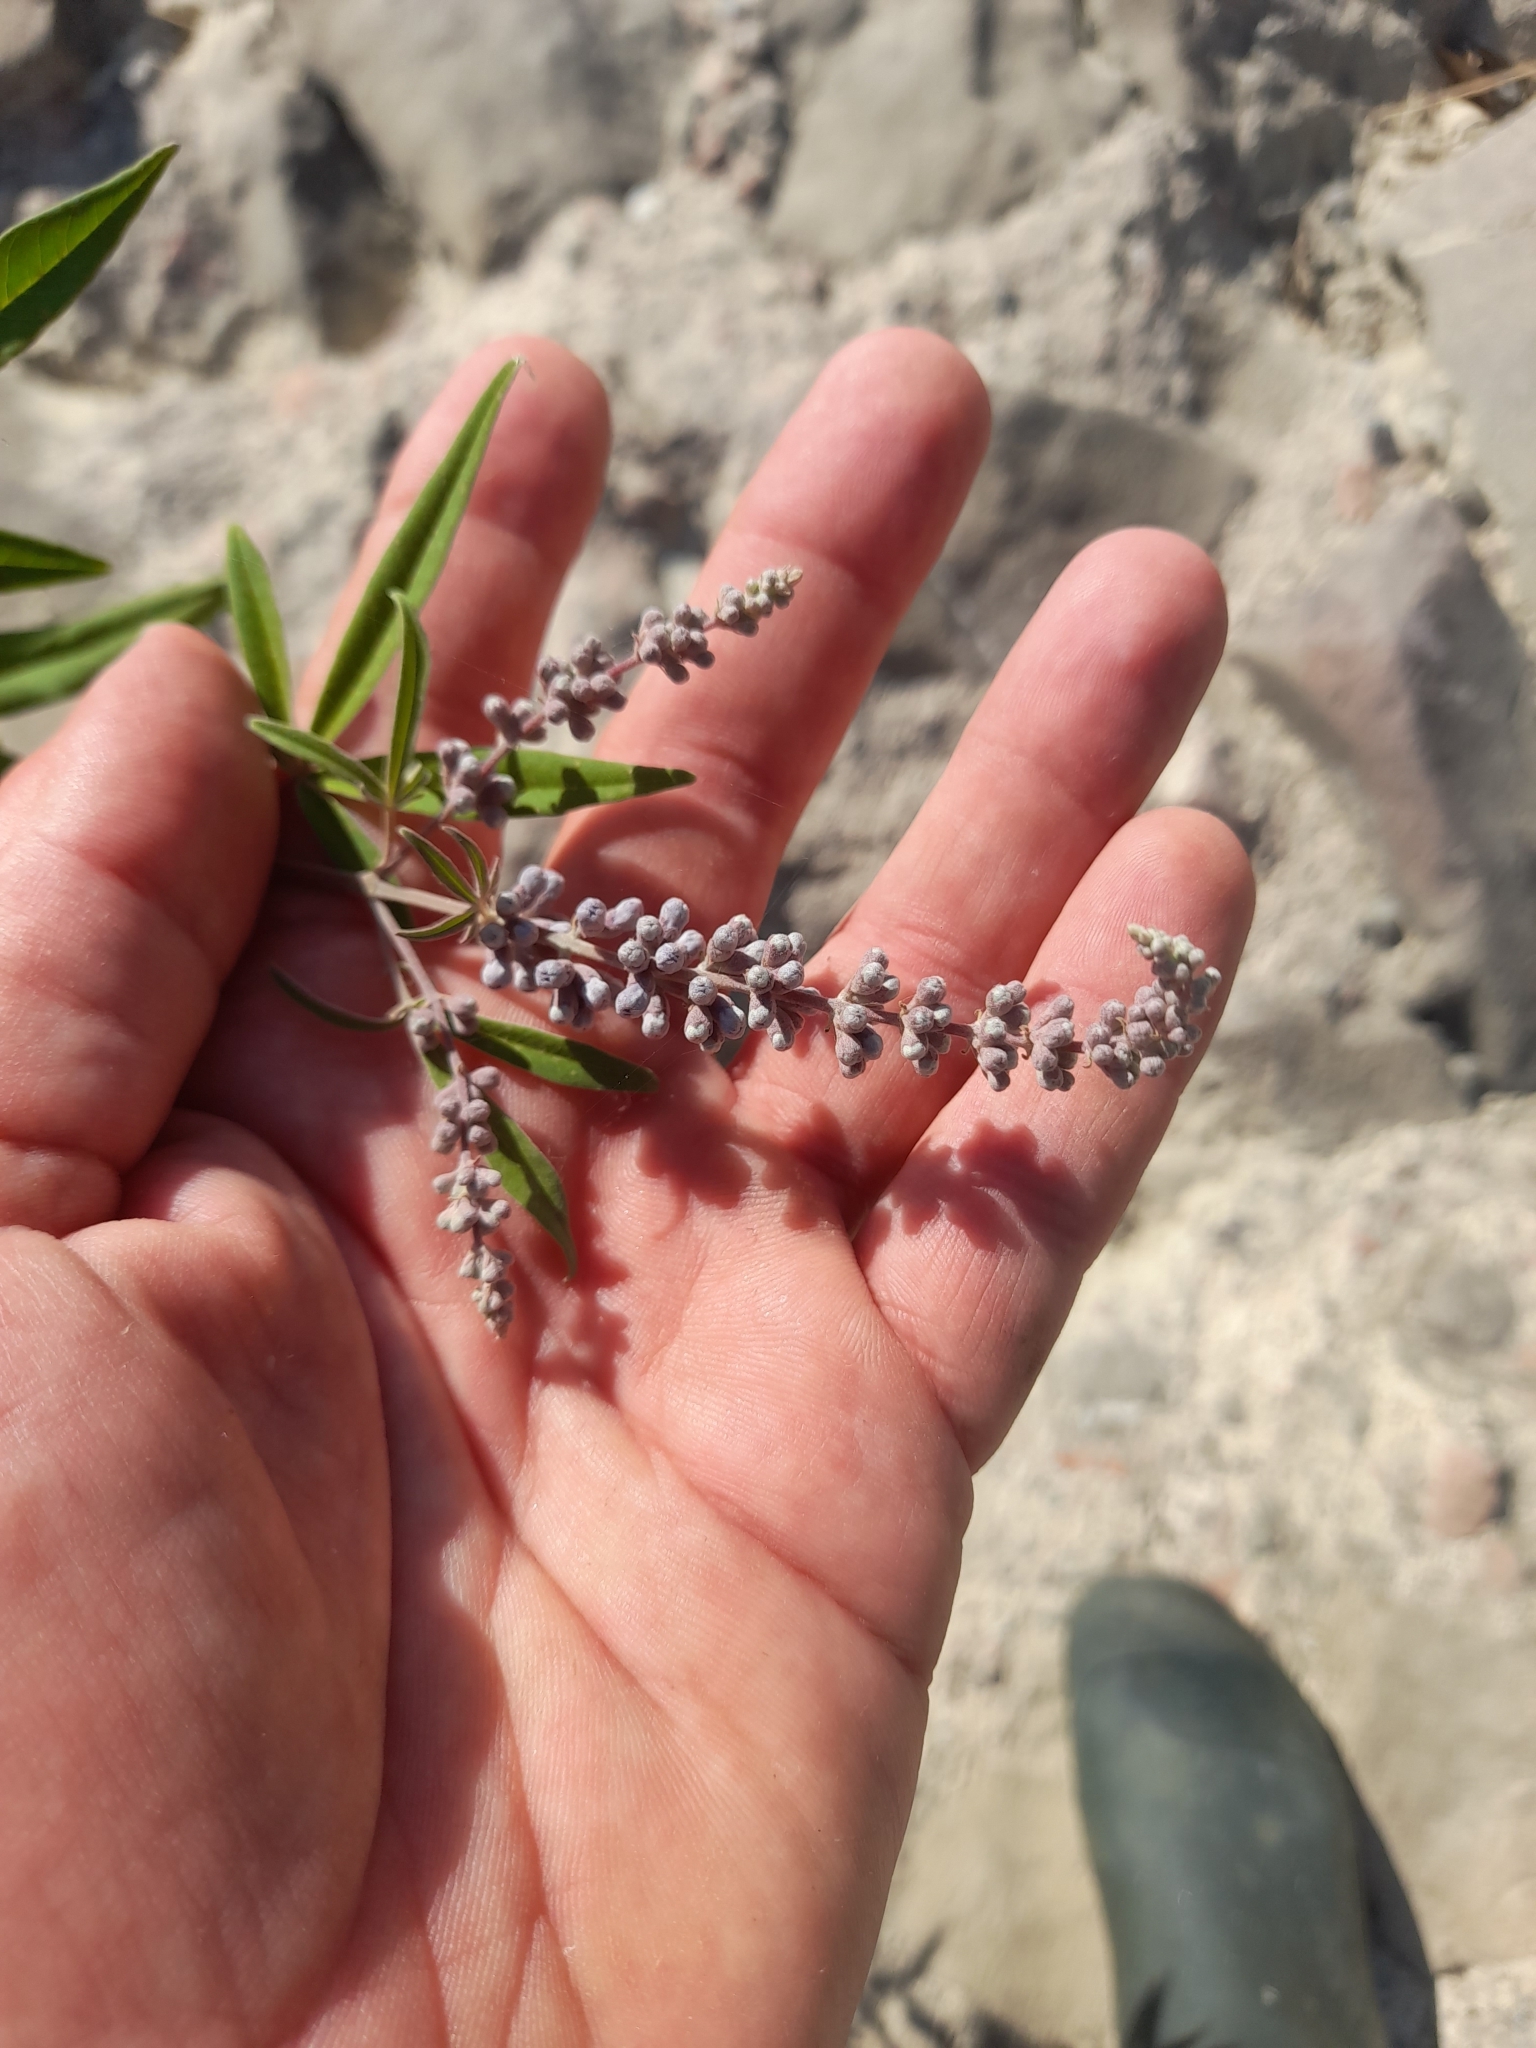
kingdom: Plantae
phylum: Tracheophyta
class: Magnoliopsida
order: Lamiales
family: Lamiaceae
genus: Vitex
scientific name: Vitex agnus-castus
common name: Chasteberry
